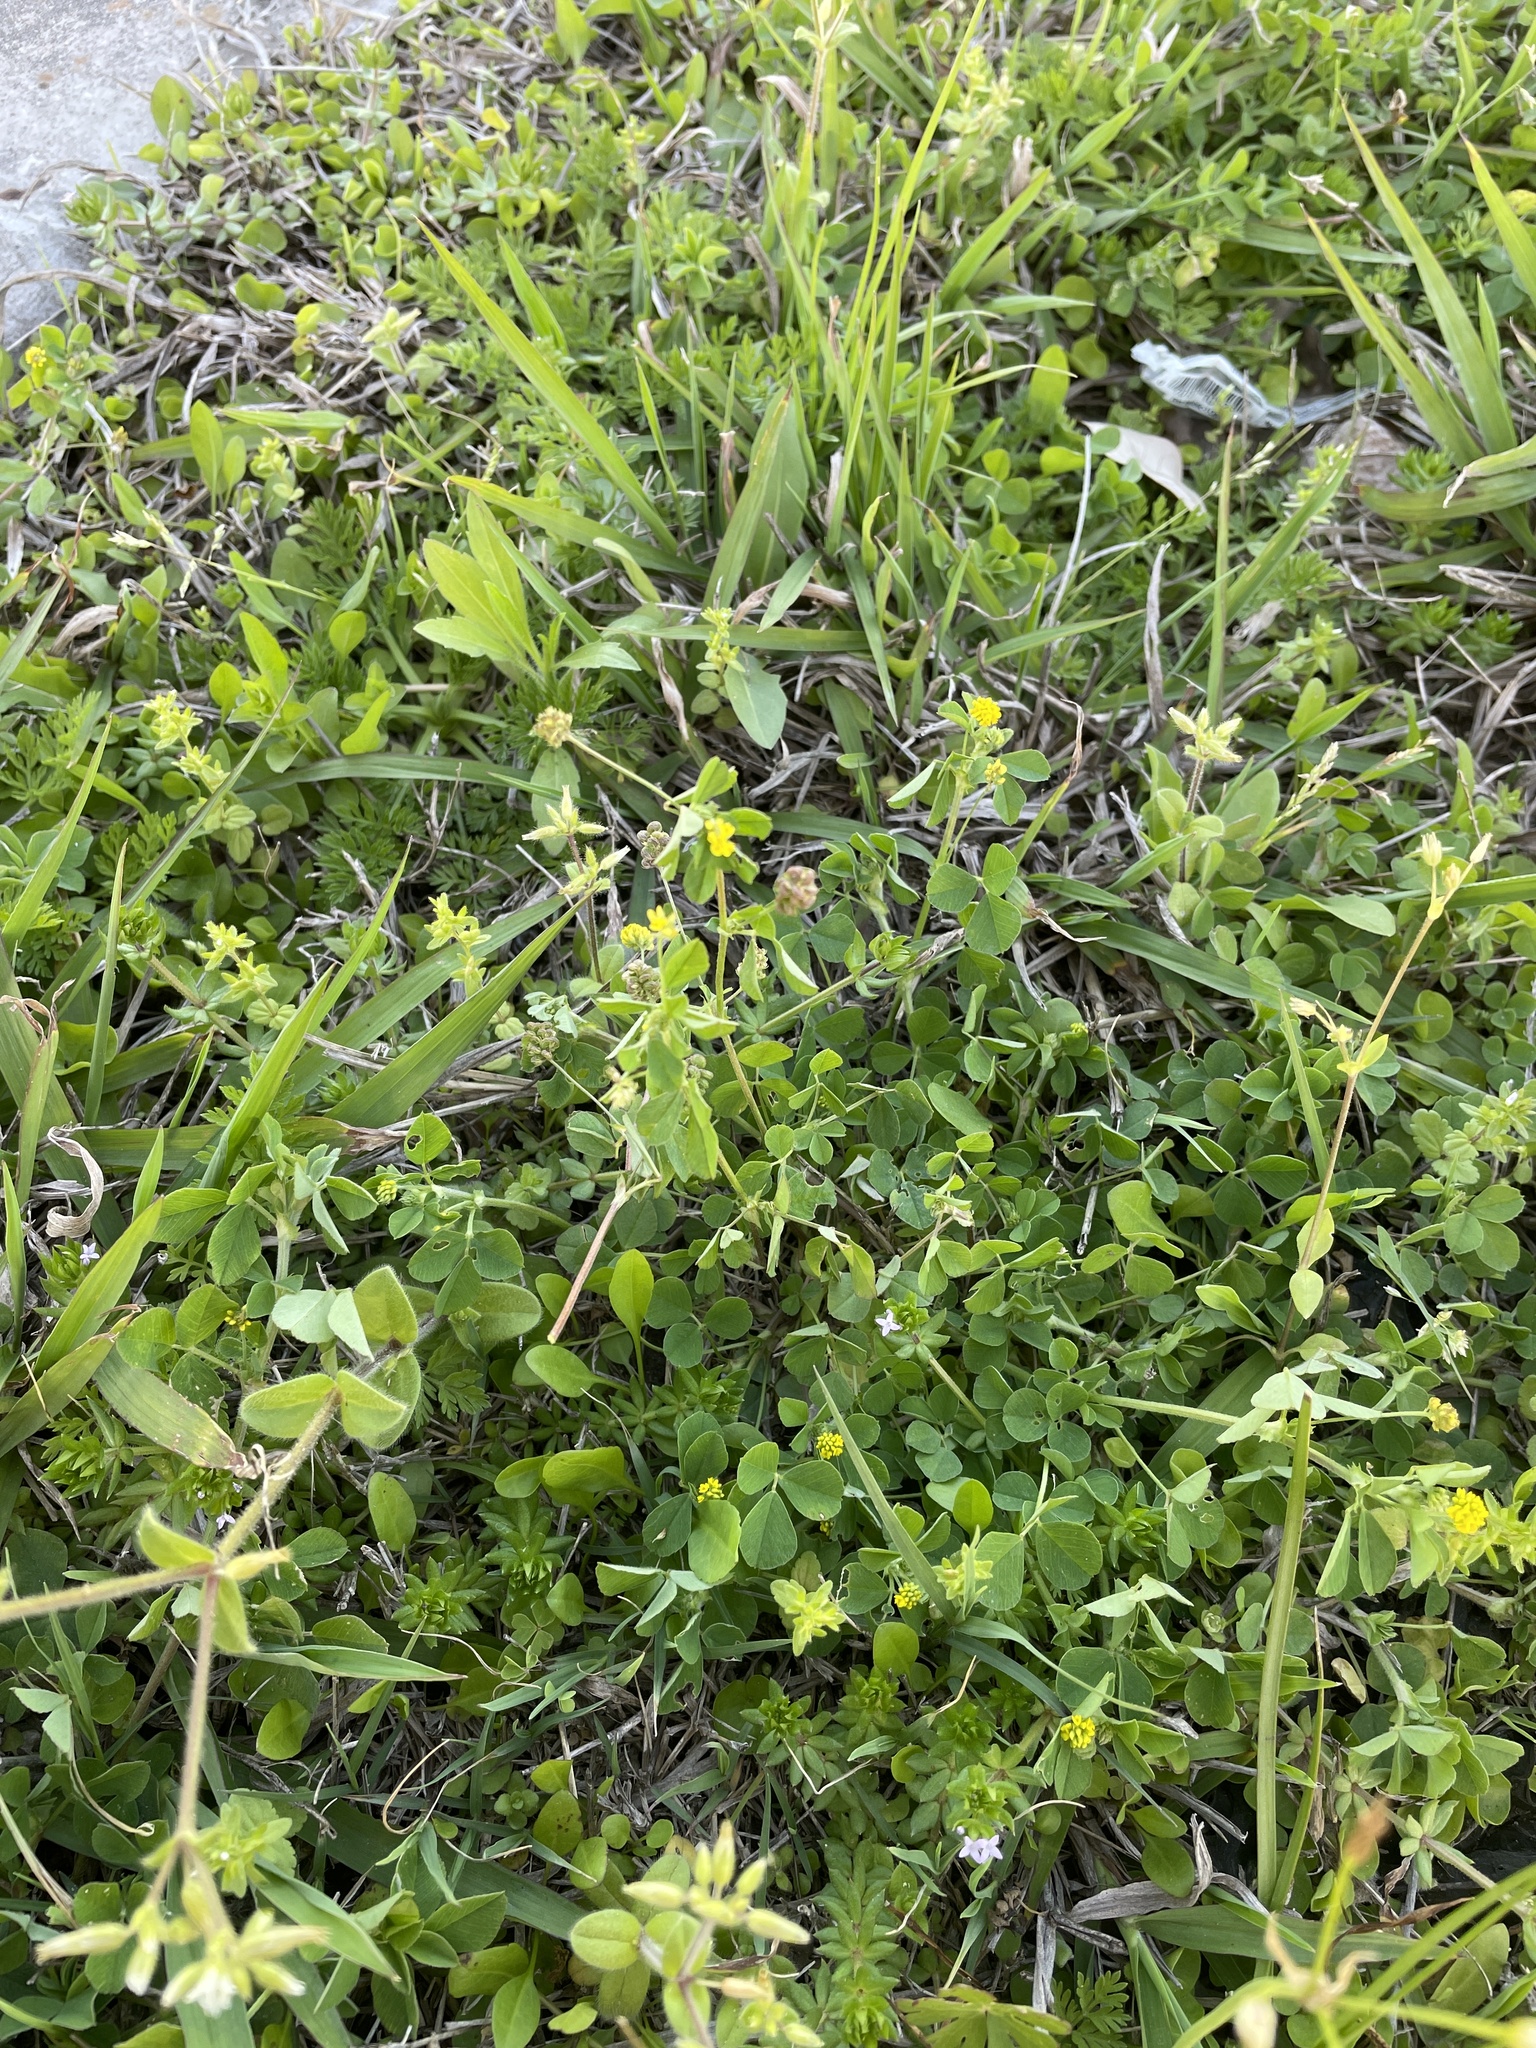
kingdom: Plantae
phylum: Tracheophyta
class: Magnoliopsida
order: Fabales
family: Fabaceae
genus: Medicago
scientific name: Medicago lupulina
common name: Black medick
